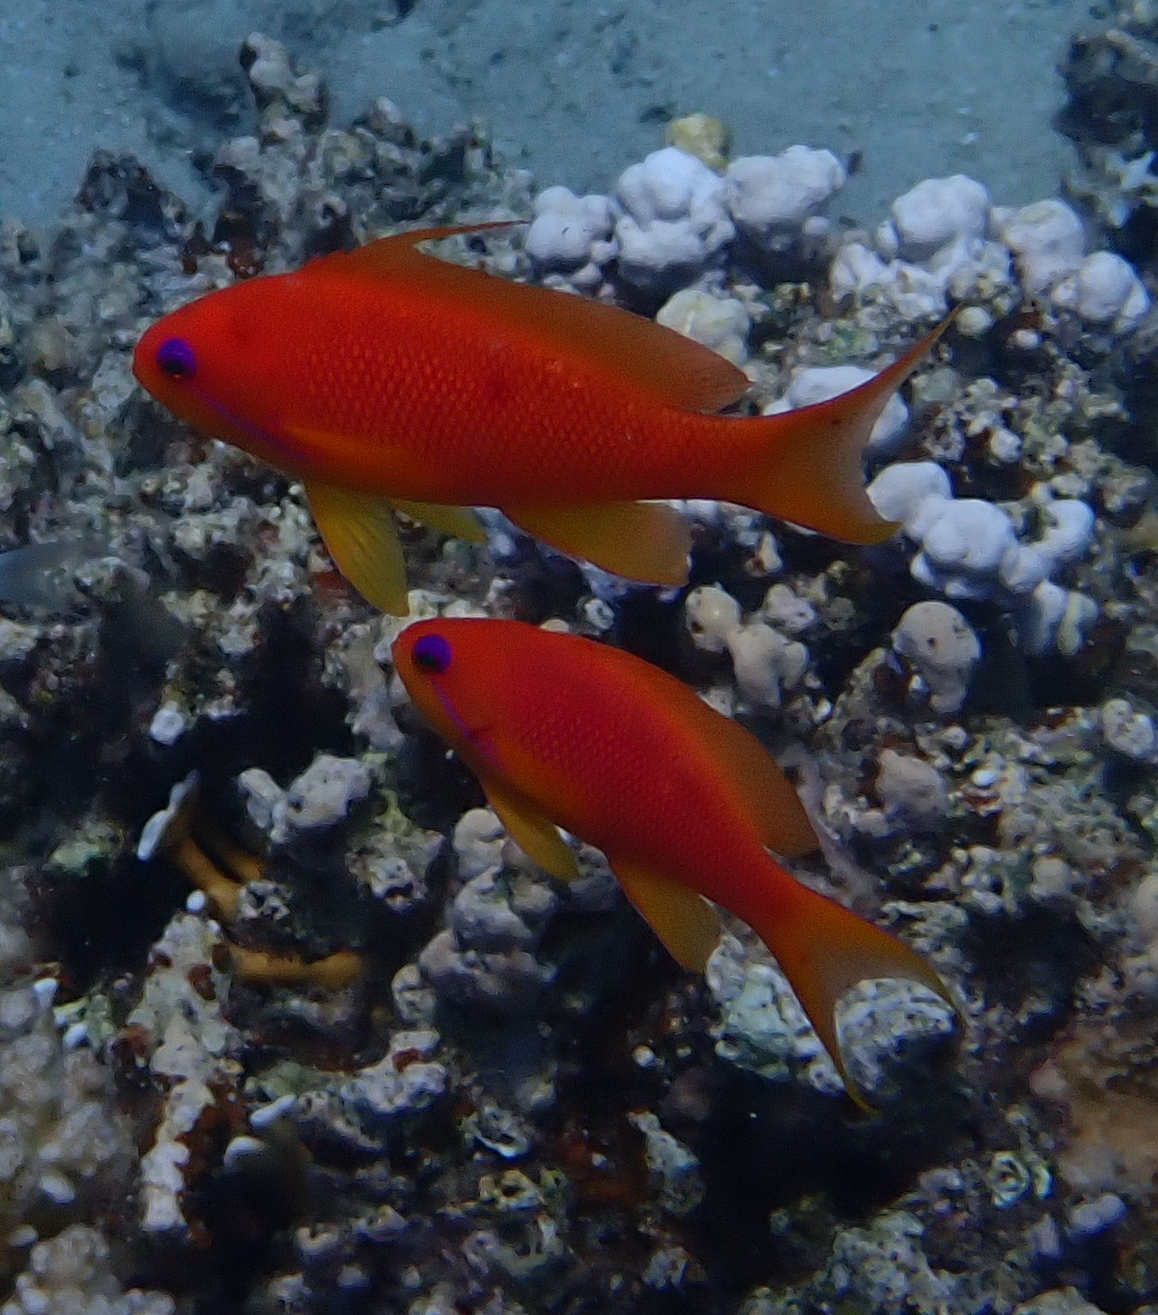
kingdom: Animalia
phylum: Chordata
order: Perciformes
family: Serranidae
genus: Pseudanthias
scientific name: Pseudanthias squamipinnis
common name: Scalefin anthias
